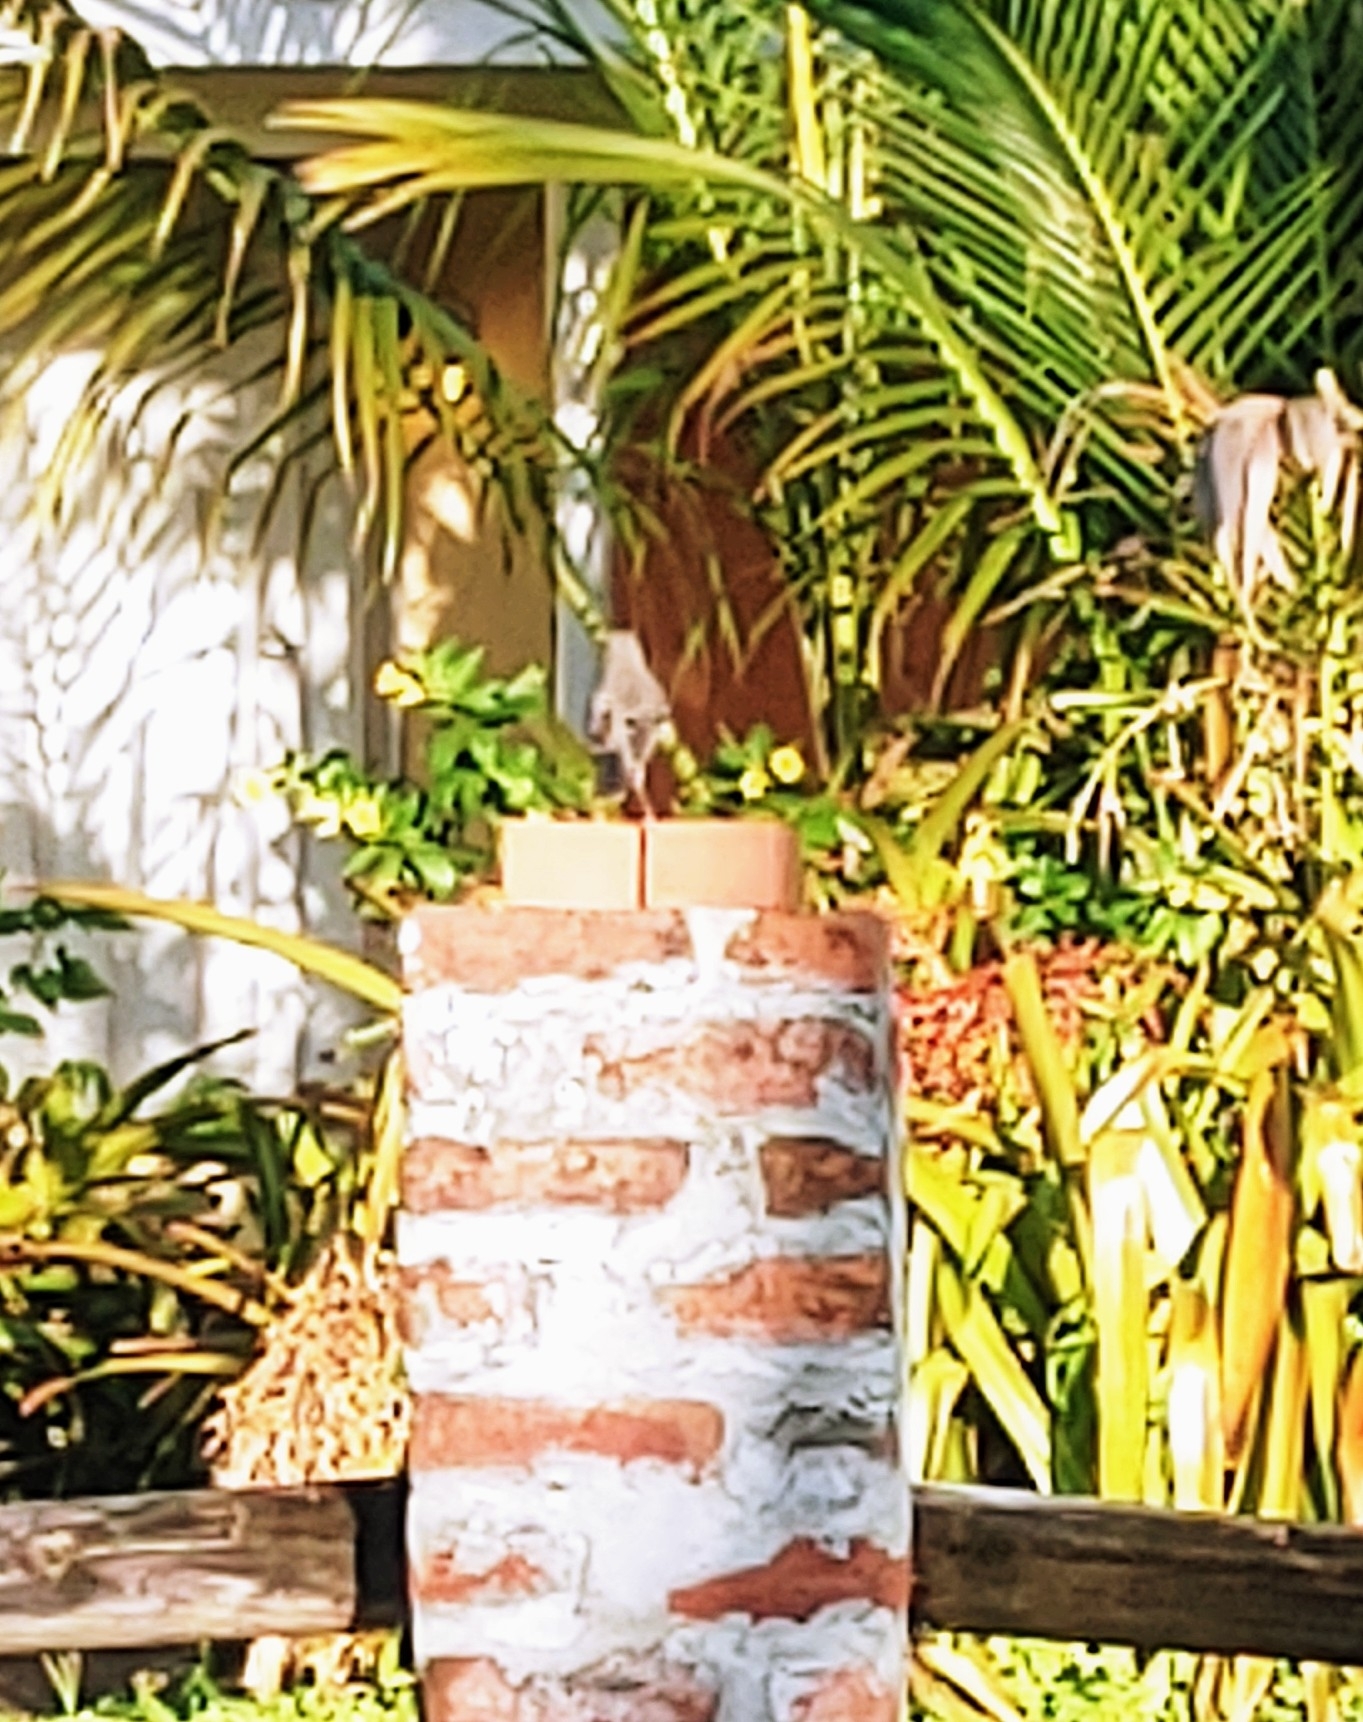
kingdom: Animalia
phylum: Chordata
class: Aves
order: Passeriformes
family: Mimidae
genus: Mimus
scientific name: Mimus polyglottos
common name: Northern mockingbird
